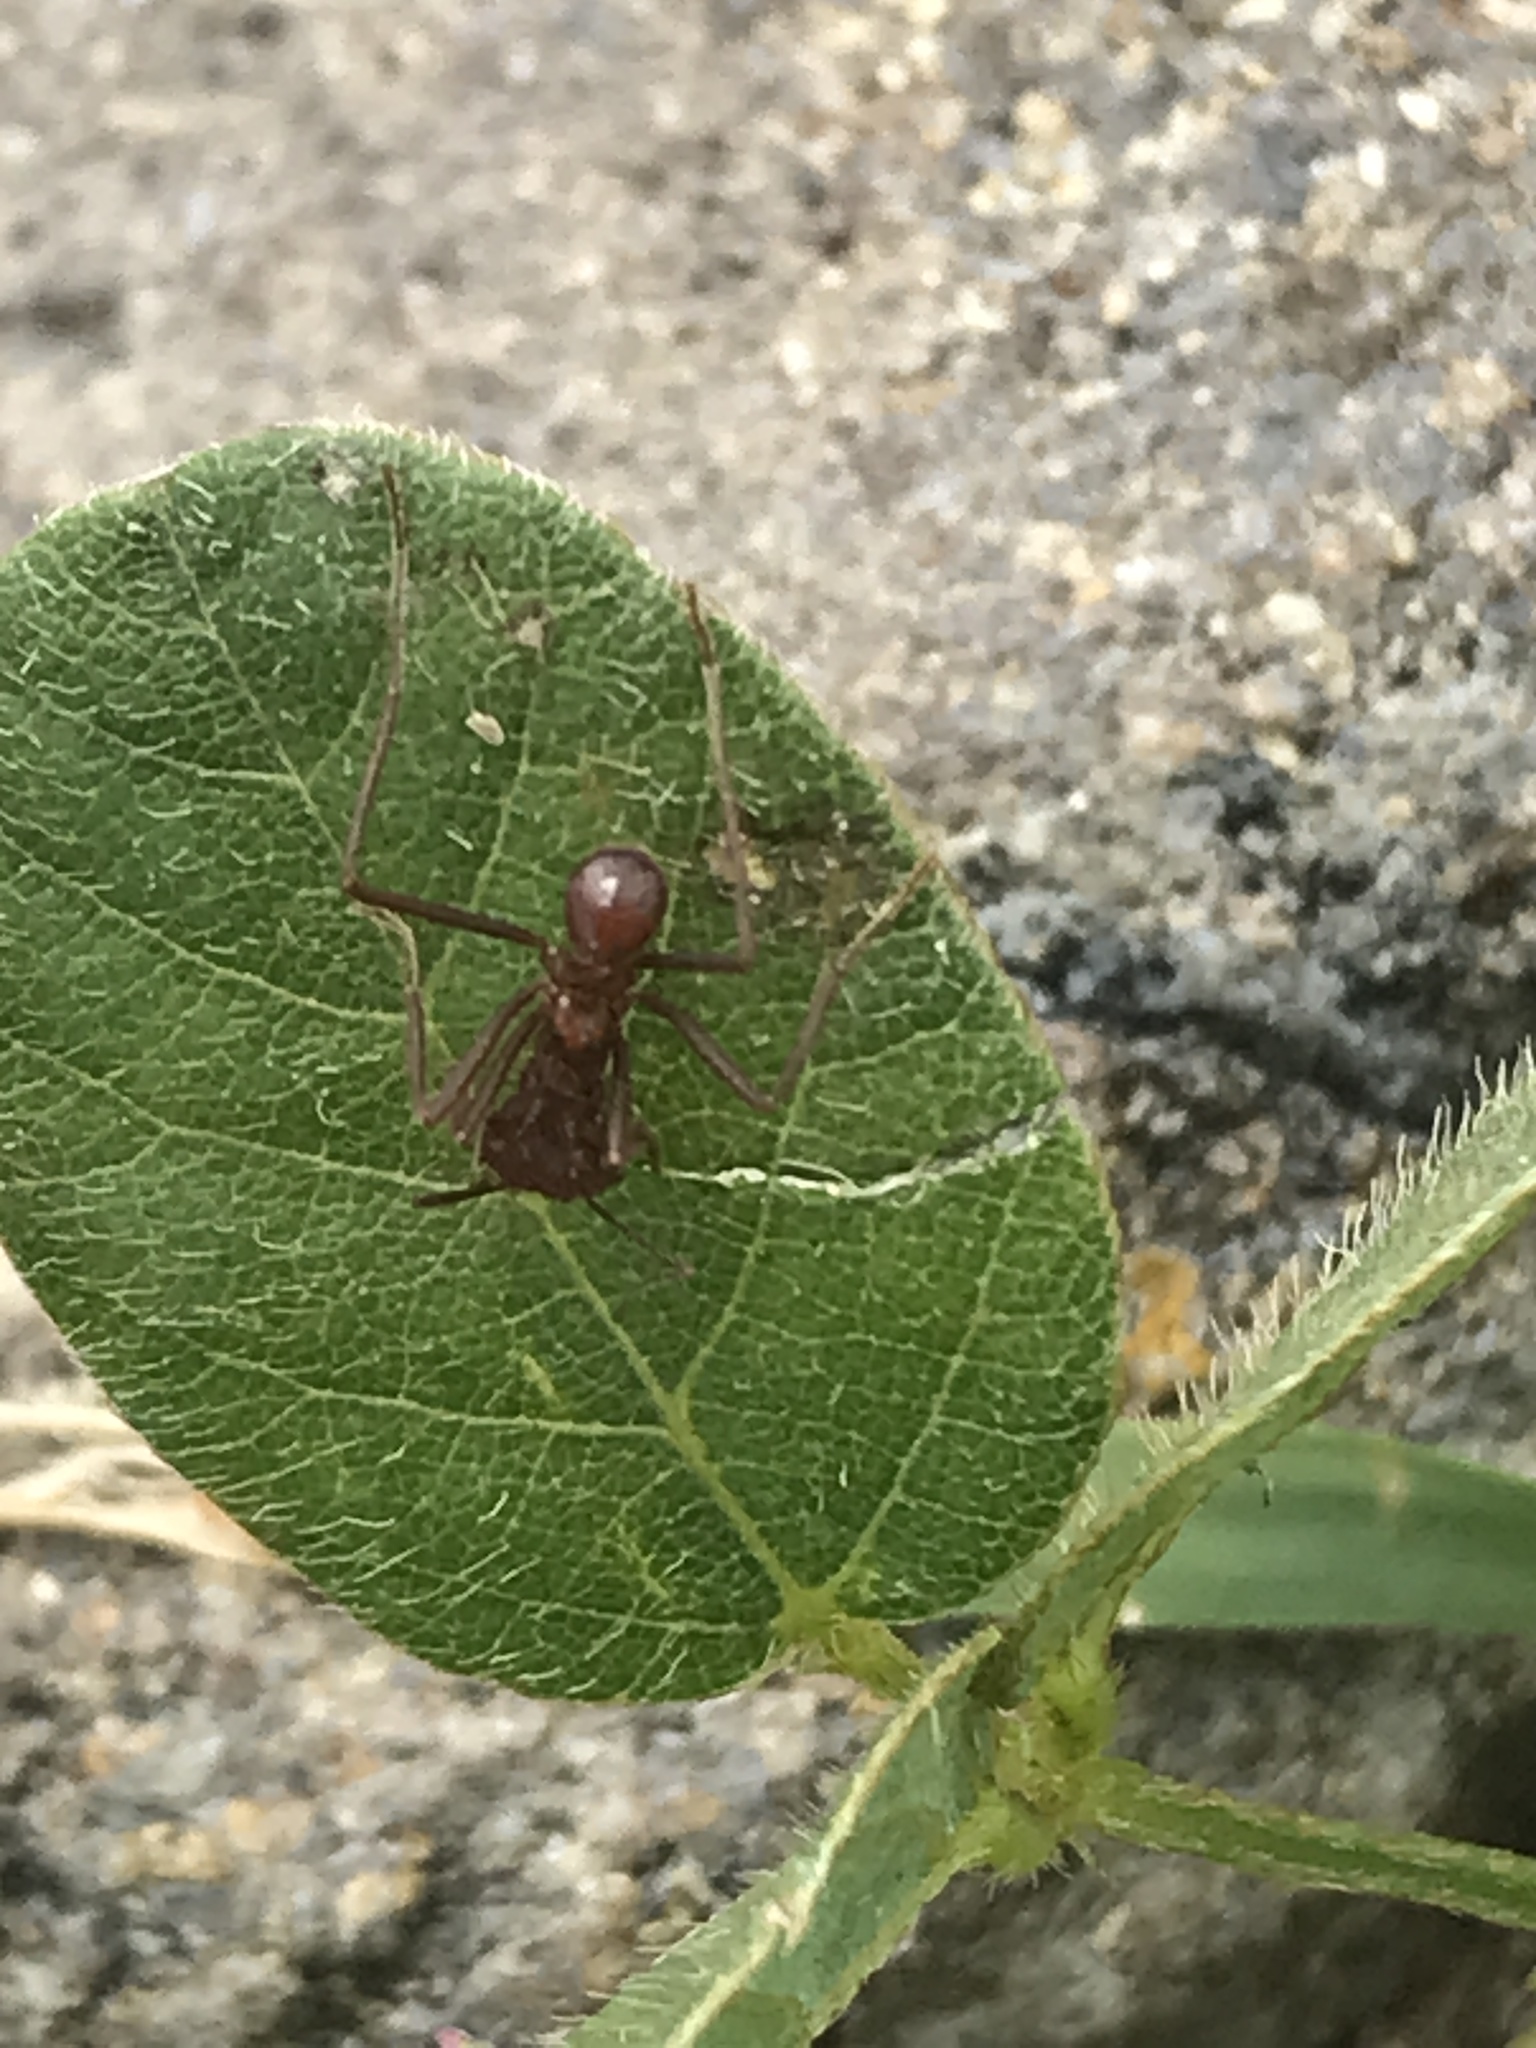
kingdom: Animalia
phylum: Arthropoda
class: Insecta
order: Hymenoptera
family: Formicidae
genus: Atta
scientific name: Atta mexicana
